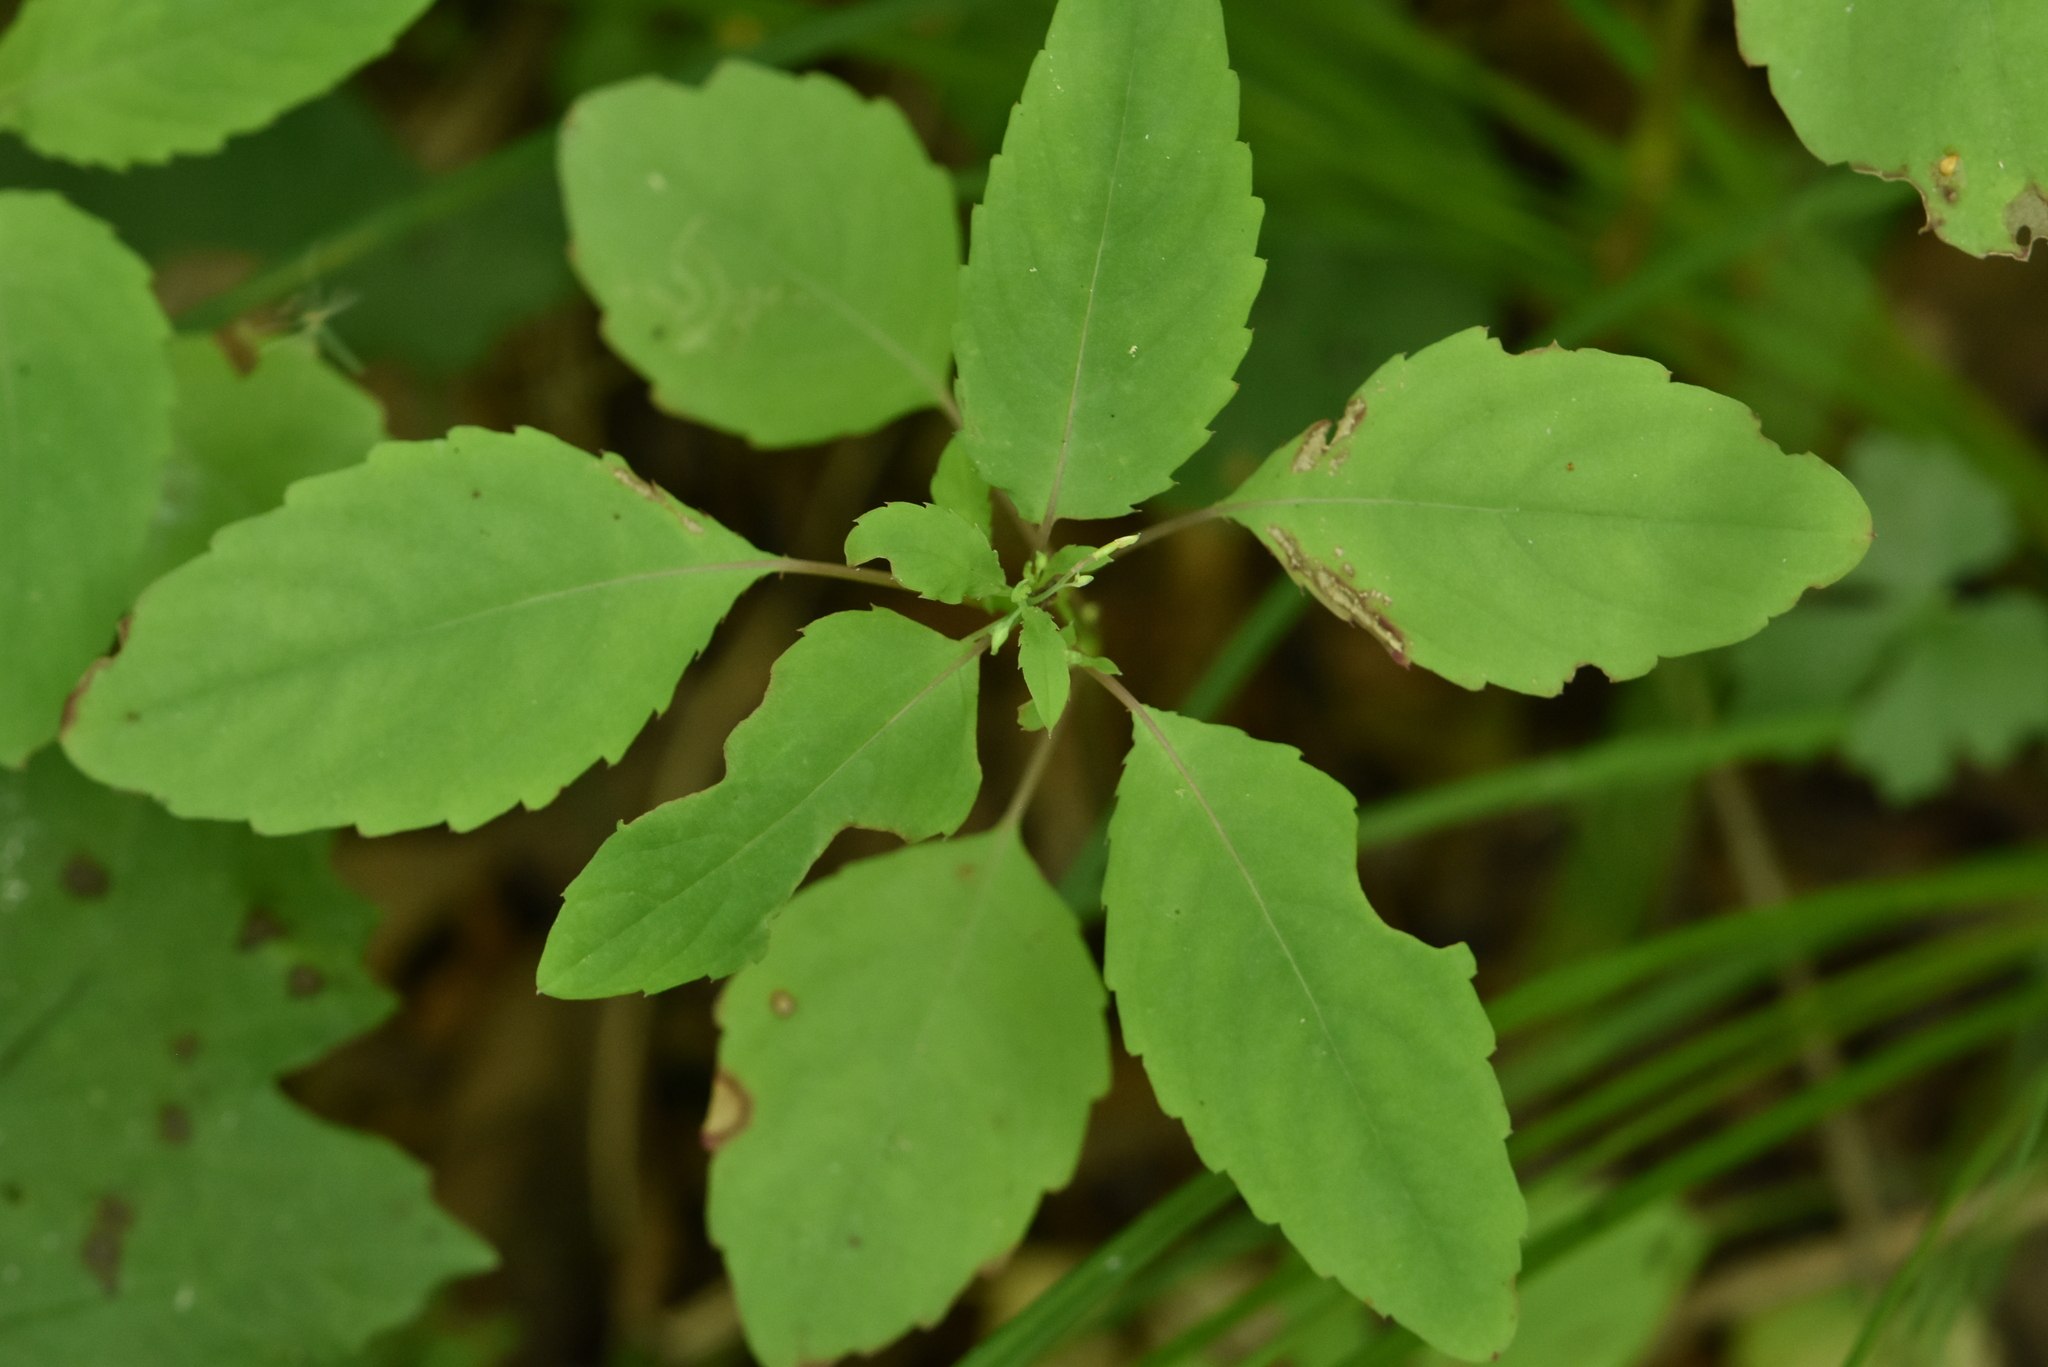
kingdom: Plantae
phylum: Tracheophyta
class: Magnoliopsida
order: Ericales
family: Balsaminaceae
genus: Impatiens
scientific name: Impatiens noli-tangere
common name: Touch-me-not balsam
